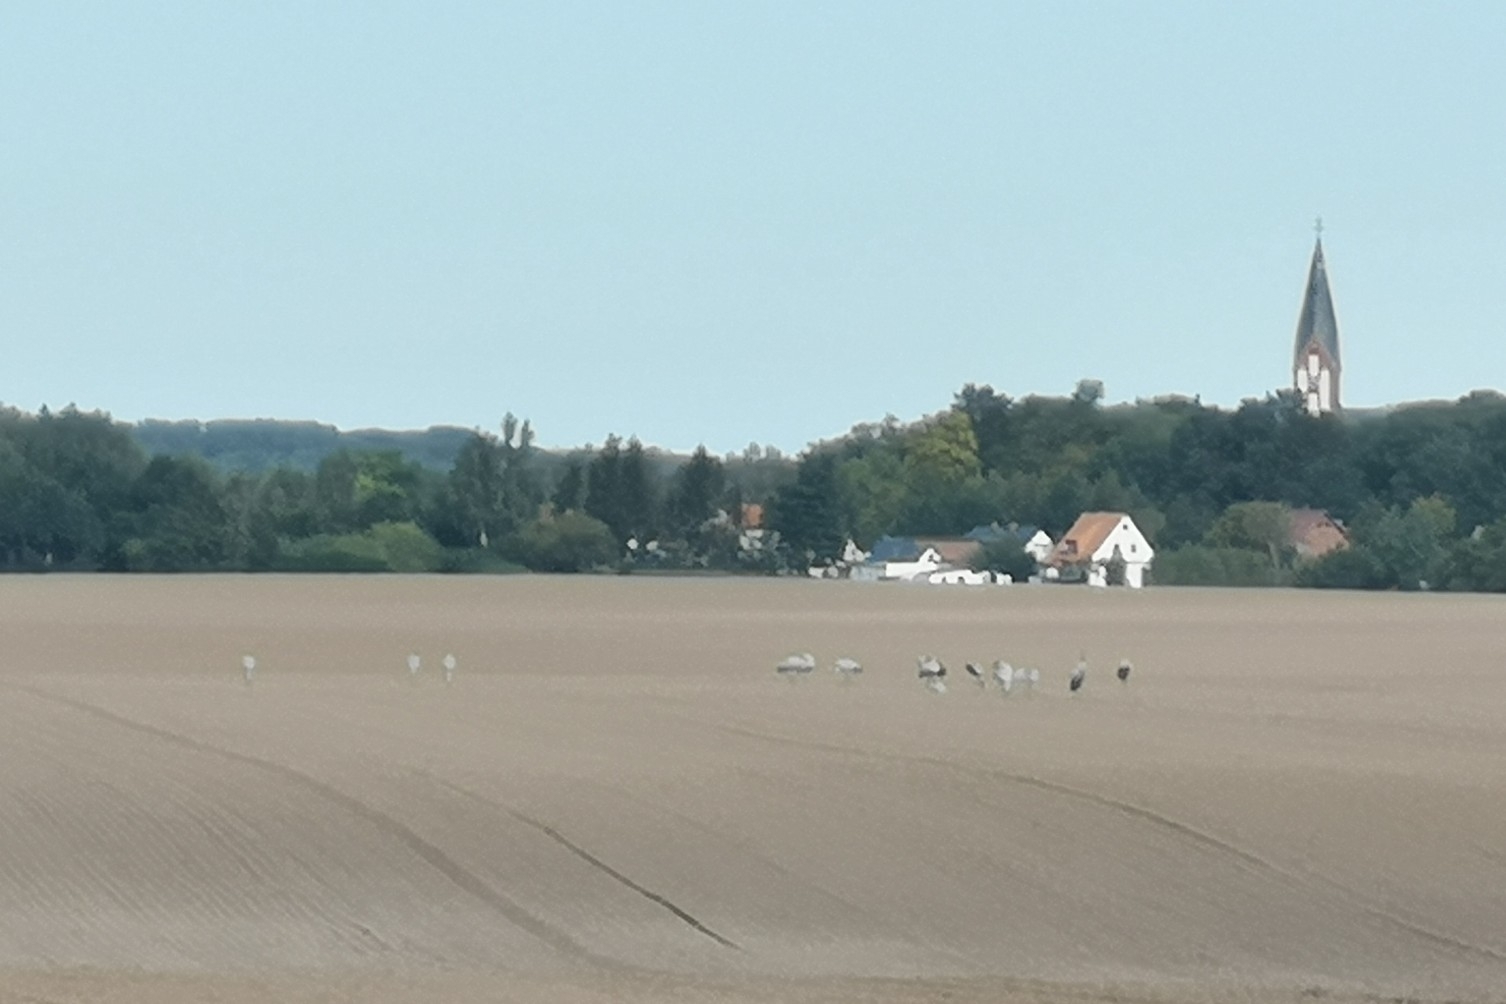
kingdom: Animalia
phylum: Chordata
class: Aves
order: Gruiformes
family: Gruidae
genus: Grus
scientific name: Grus grus
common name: Common crane
